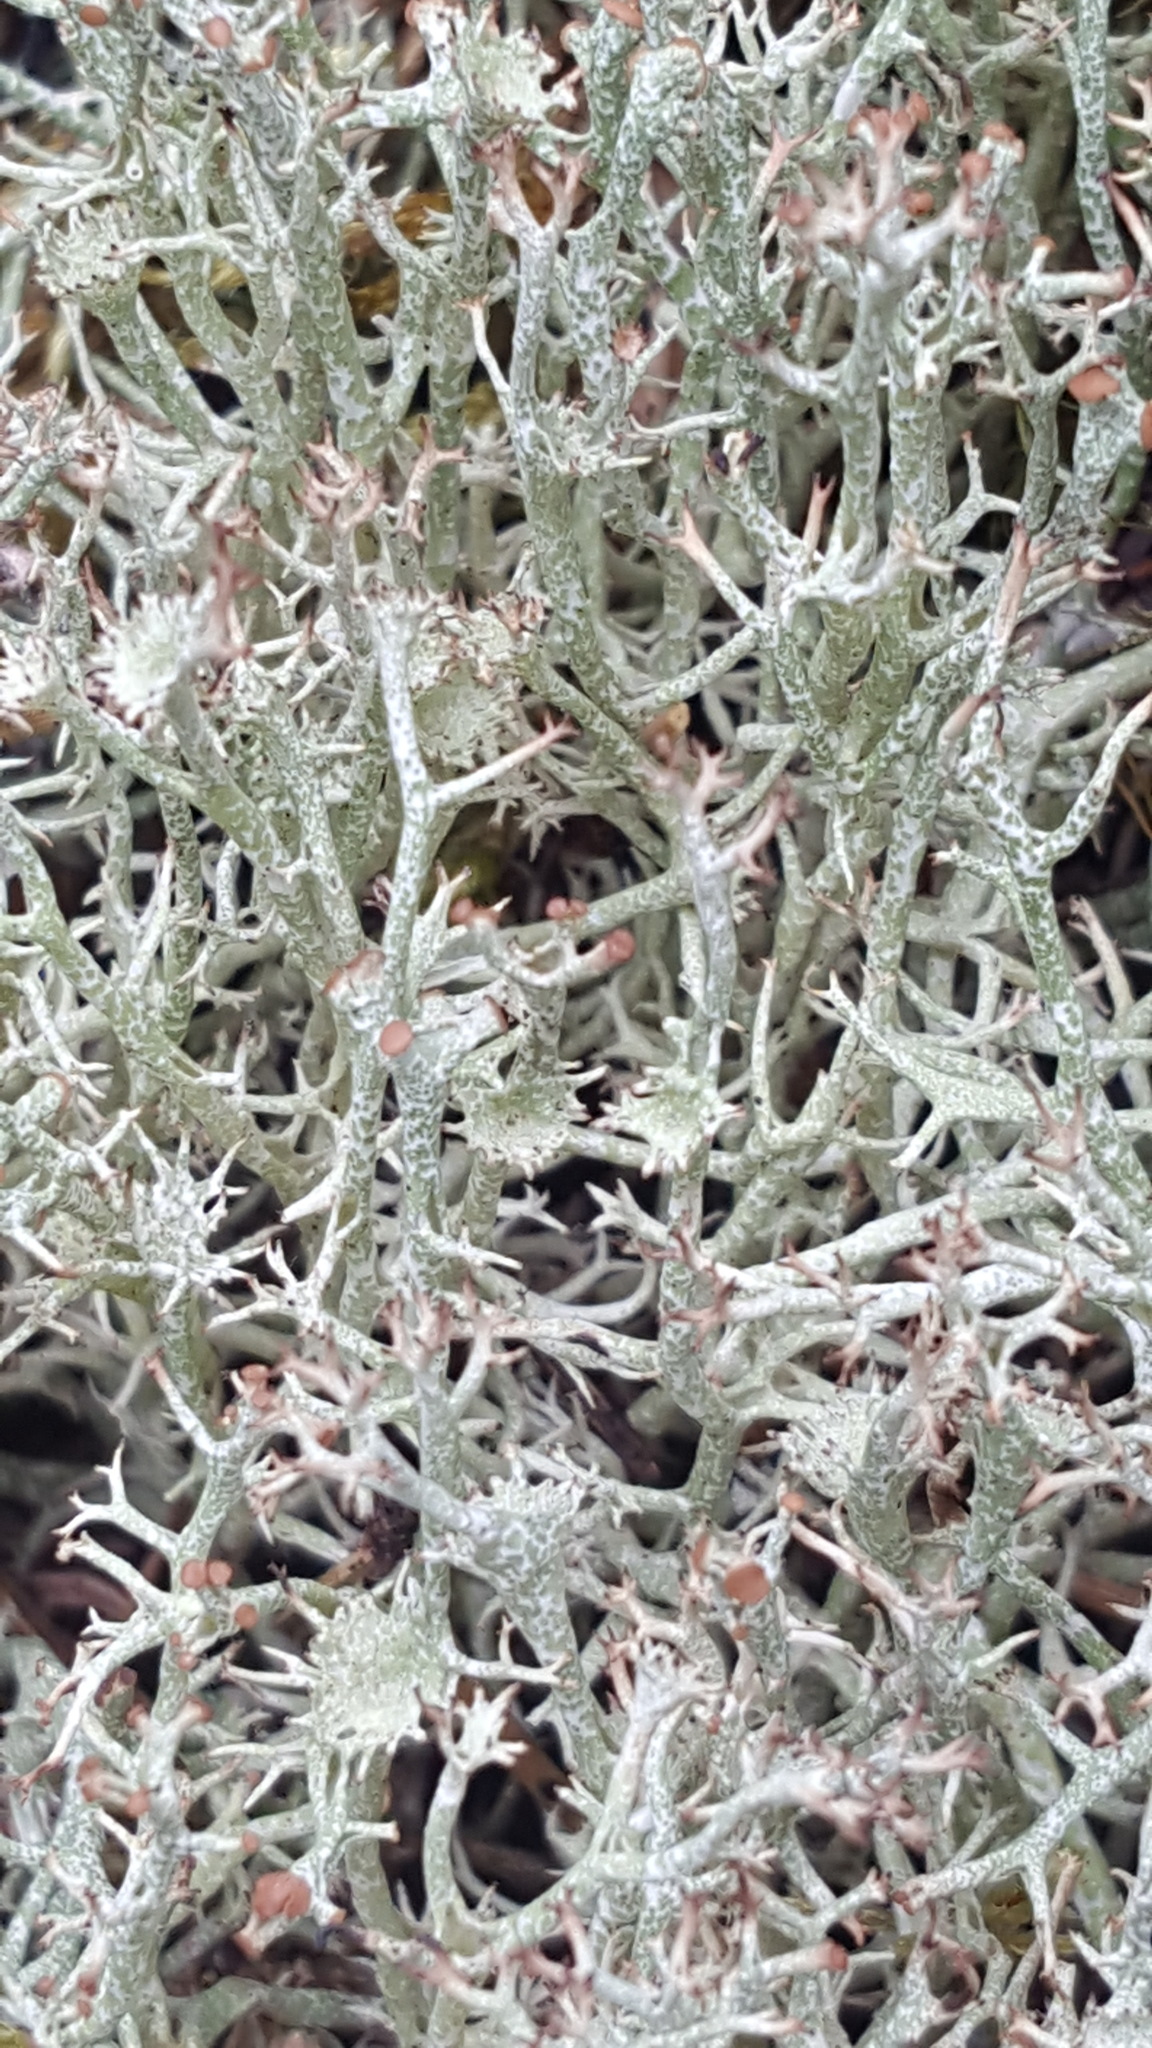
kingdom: Fungi
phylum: Ascomycota
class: Lecanoromycetes
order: Lecanorales
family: Cladoniaceae
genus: Cladonia
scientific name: Cladonia amaurocraea
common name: Quill lichen
